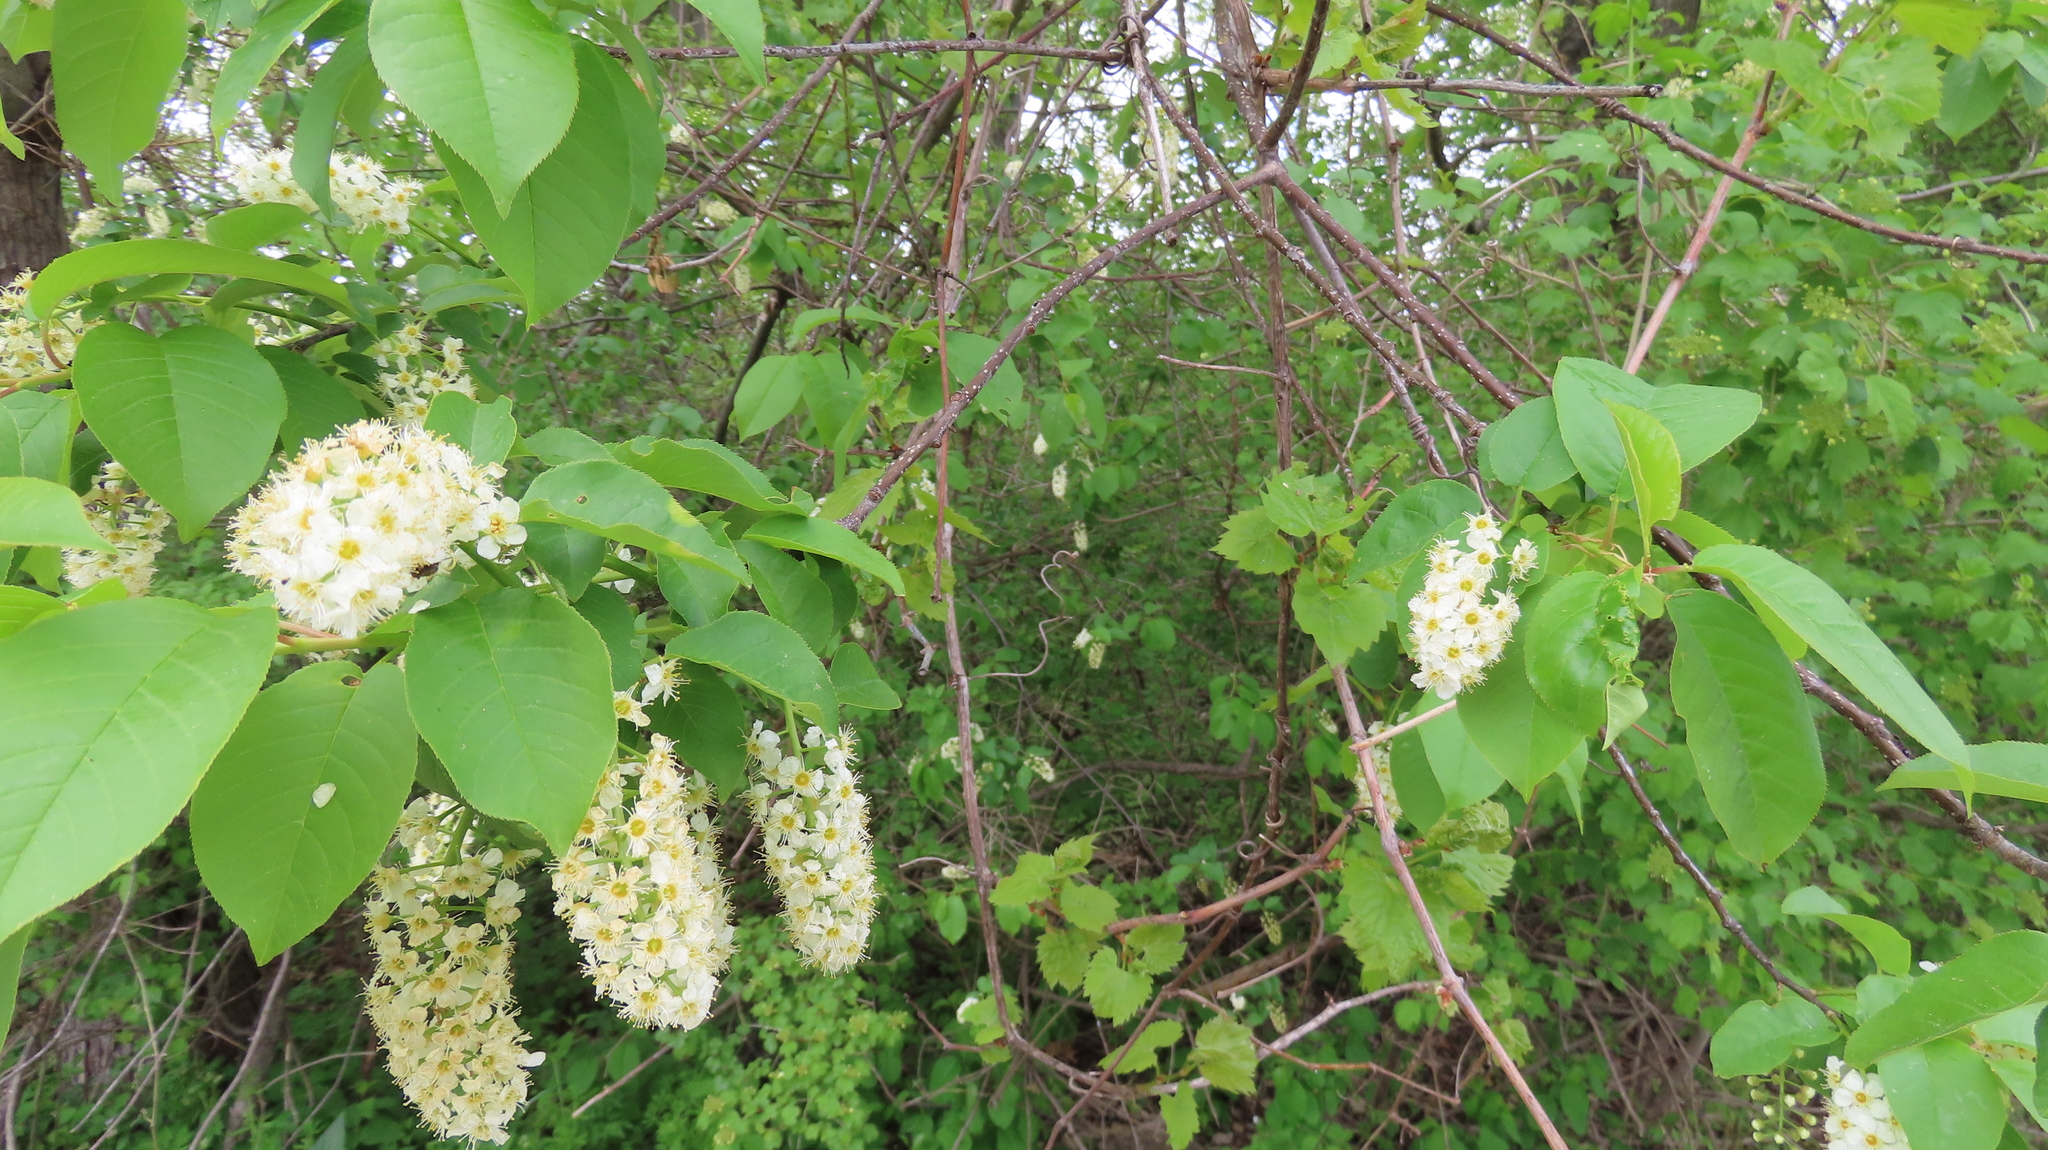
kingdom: Plantae
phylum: Tracheophyta
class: Magnoliopsida
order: Rosales
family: Rosaceae
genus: Prunus
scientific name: Prunus virginiana
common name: Chokecherry
